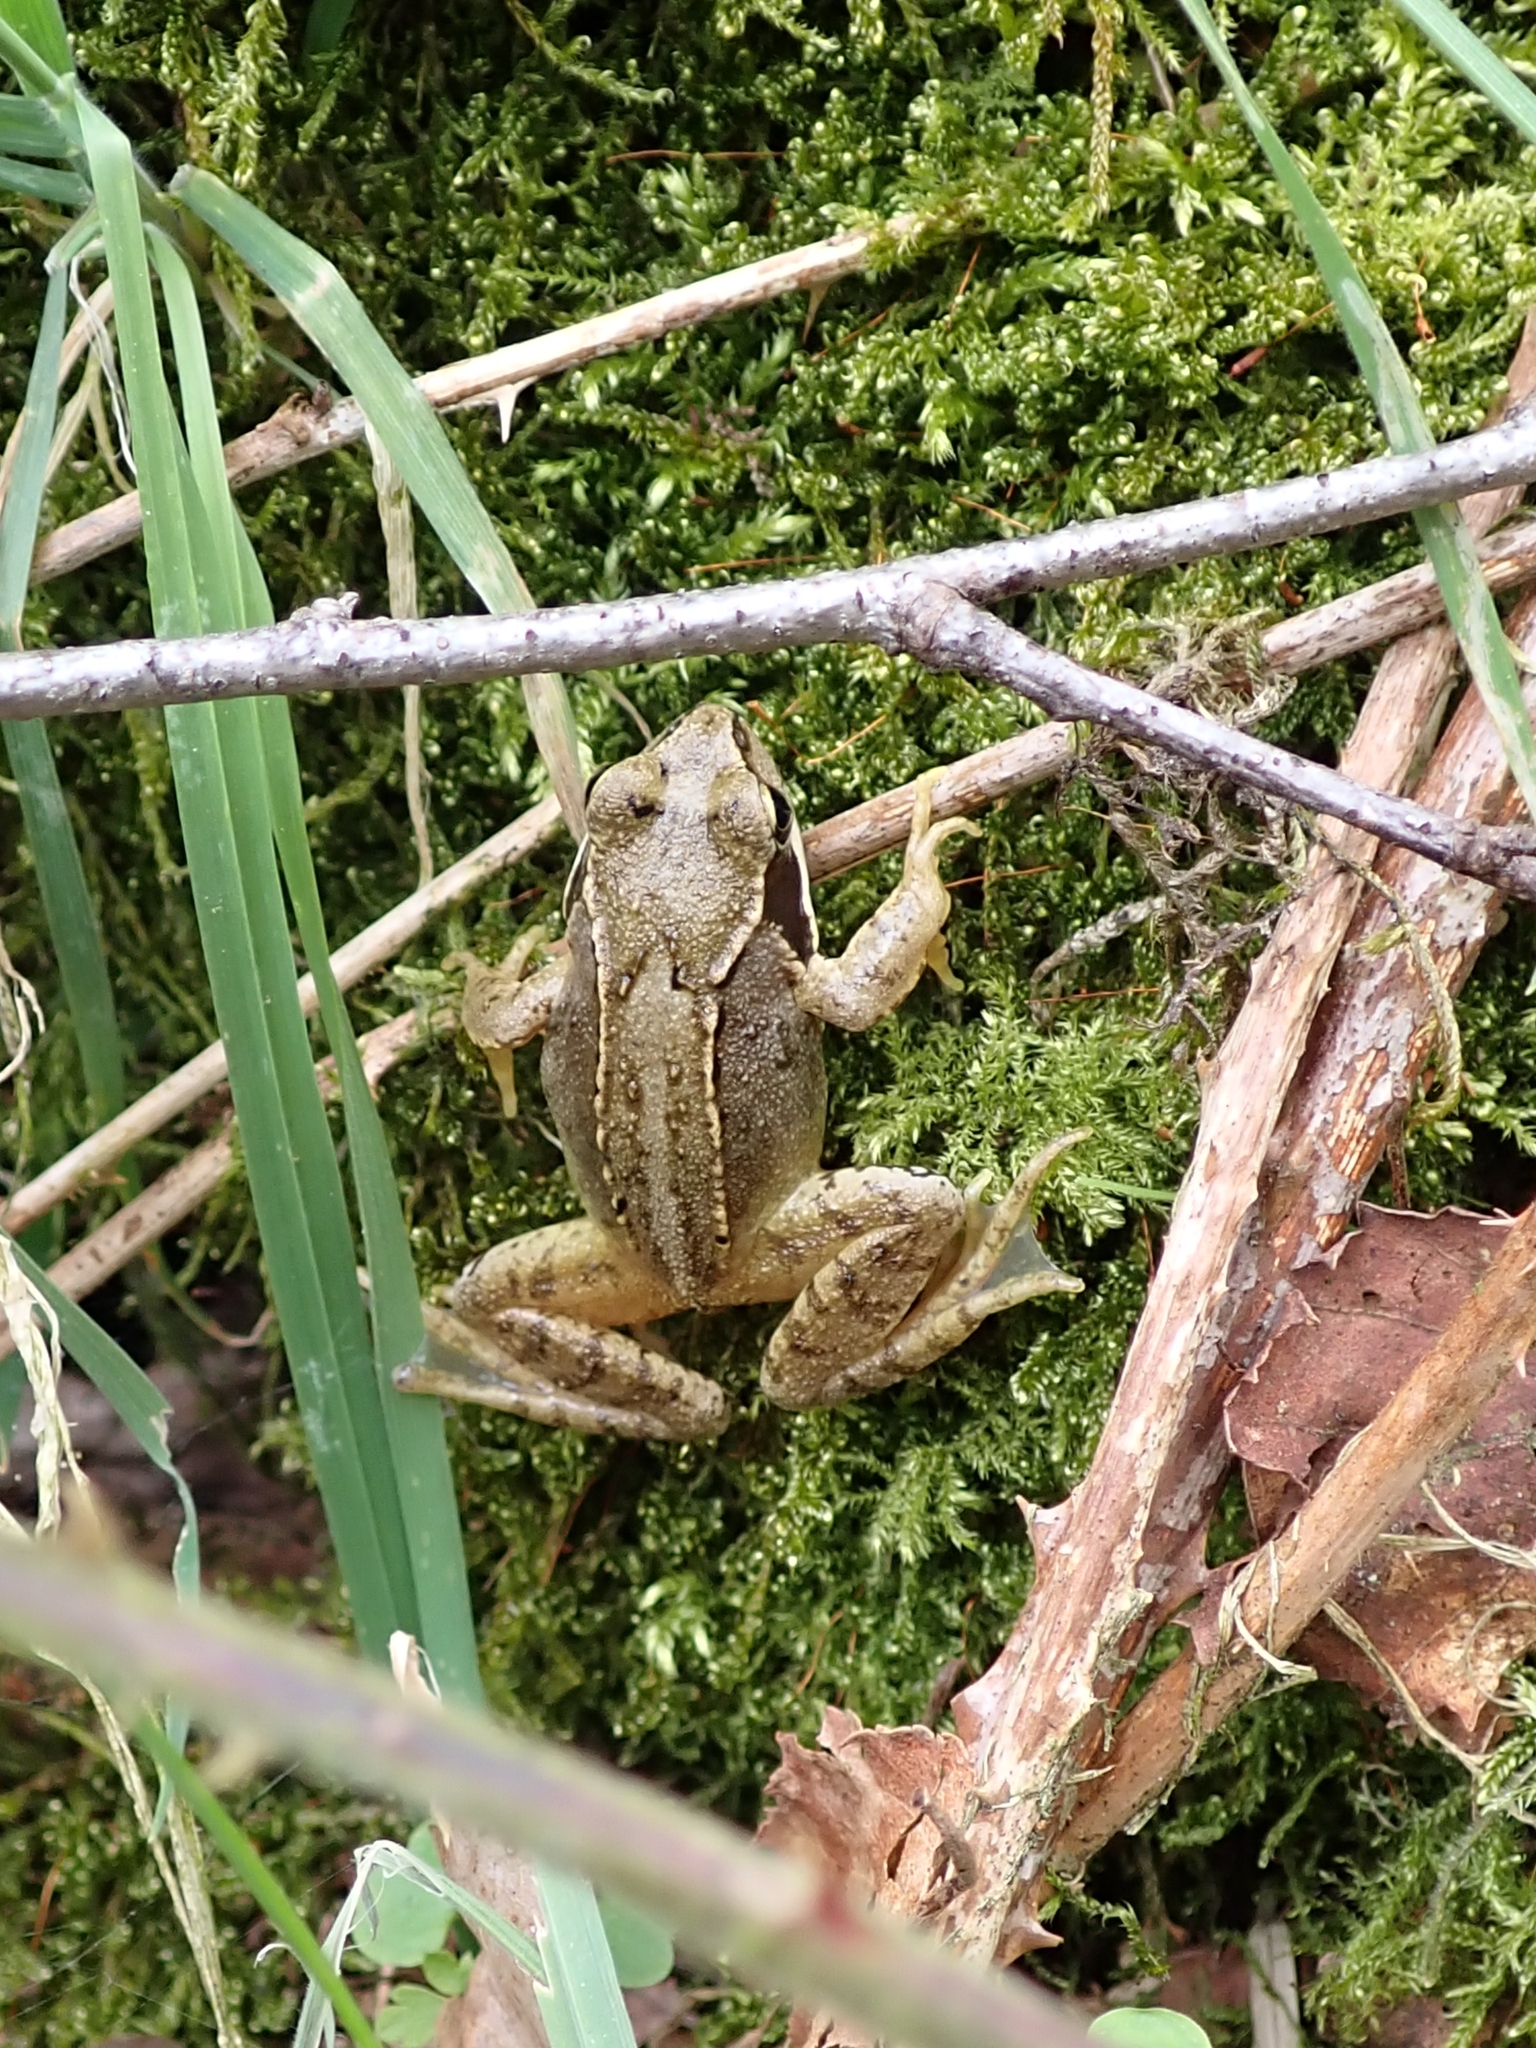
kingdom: Animalia
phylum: Chordata
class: Amphibia
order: Anura
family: Ranidae
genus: Rana
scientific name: Rana temporaria
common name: Common frog
